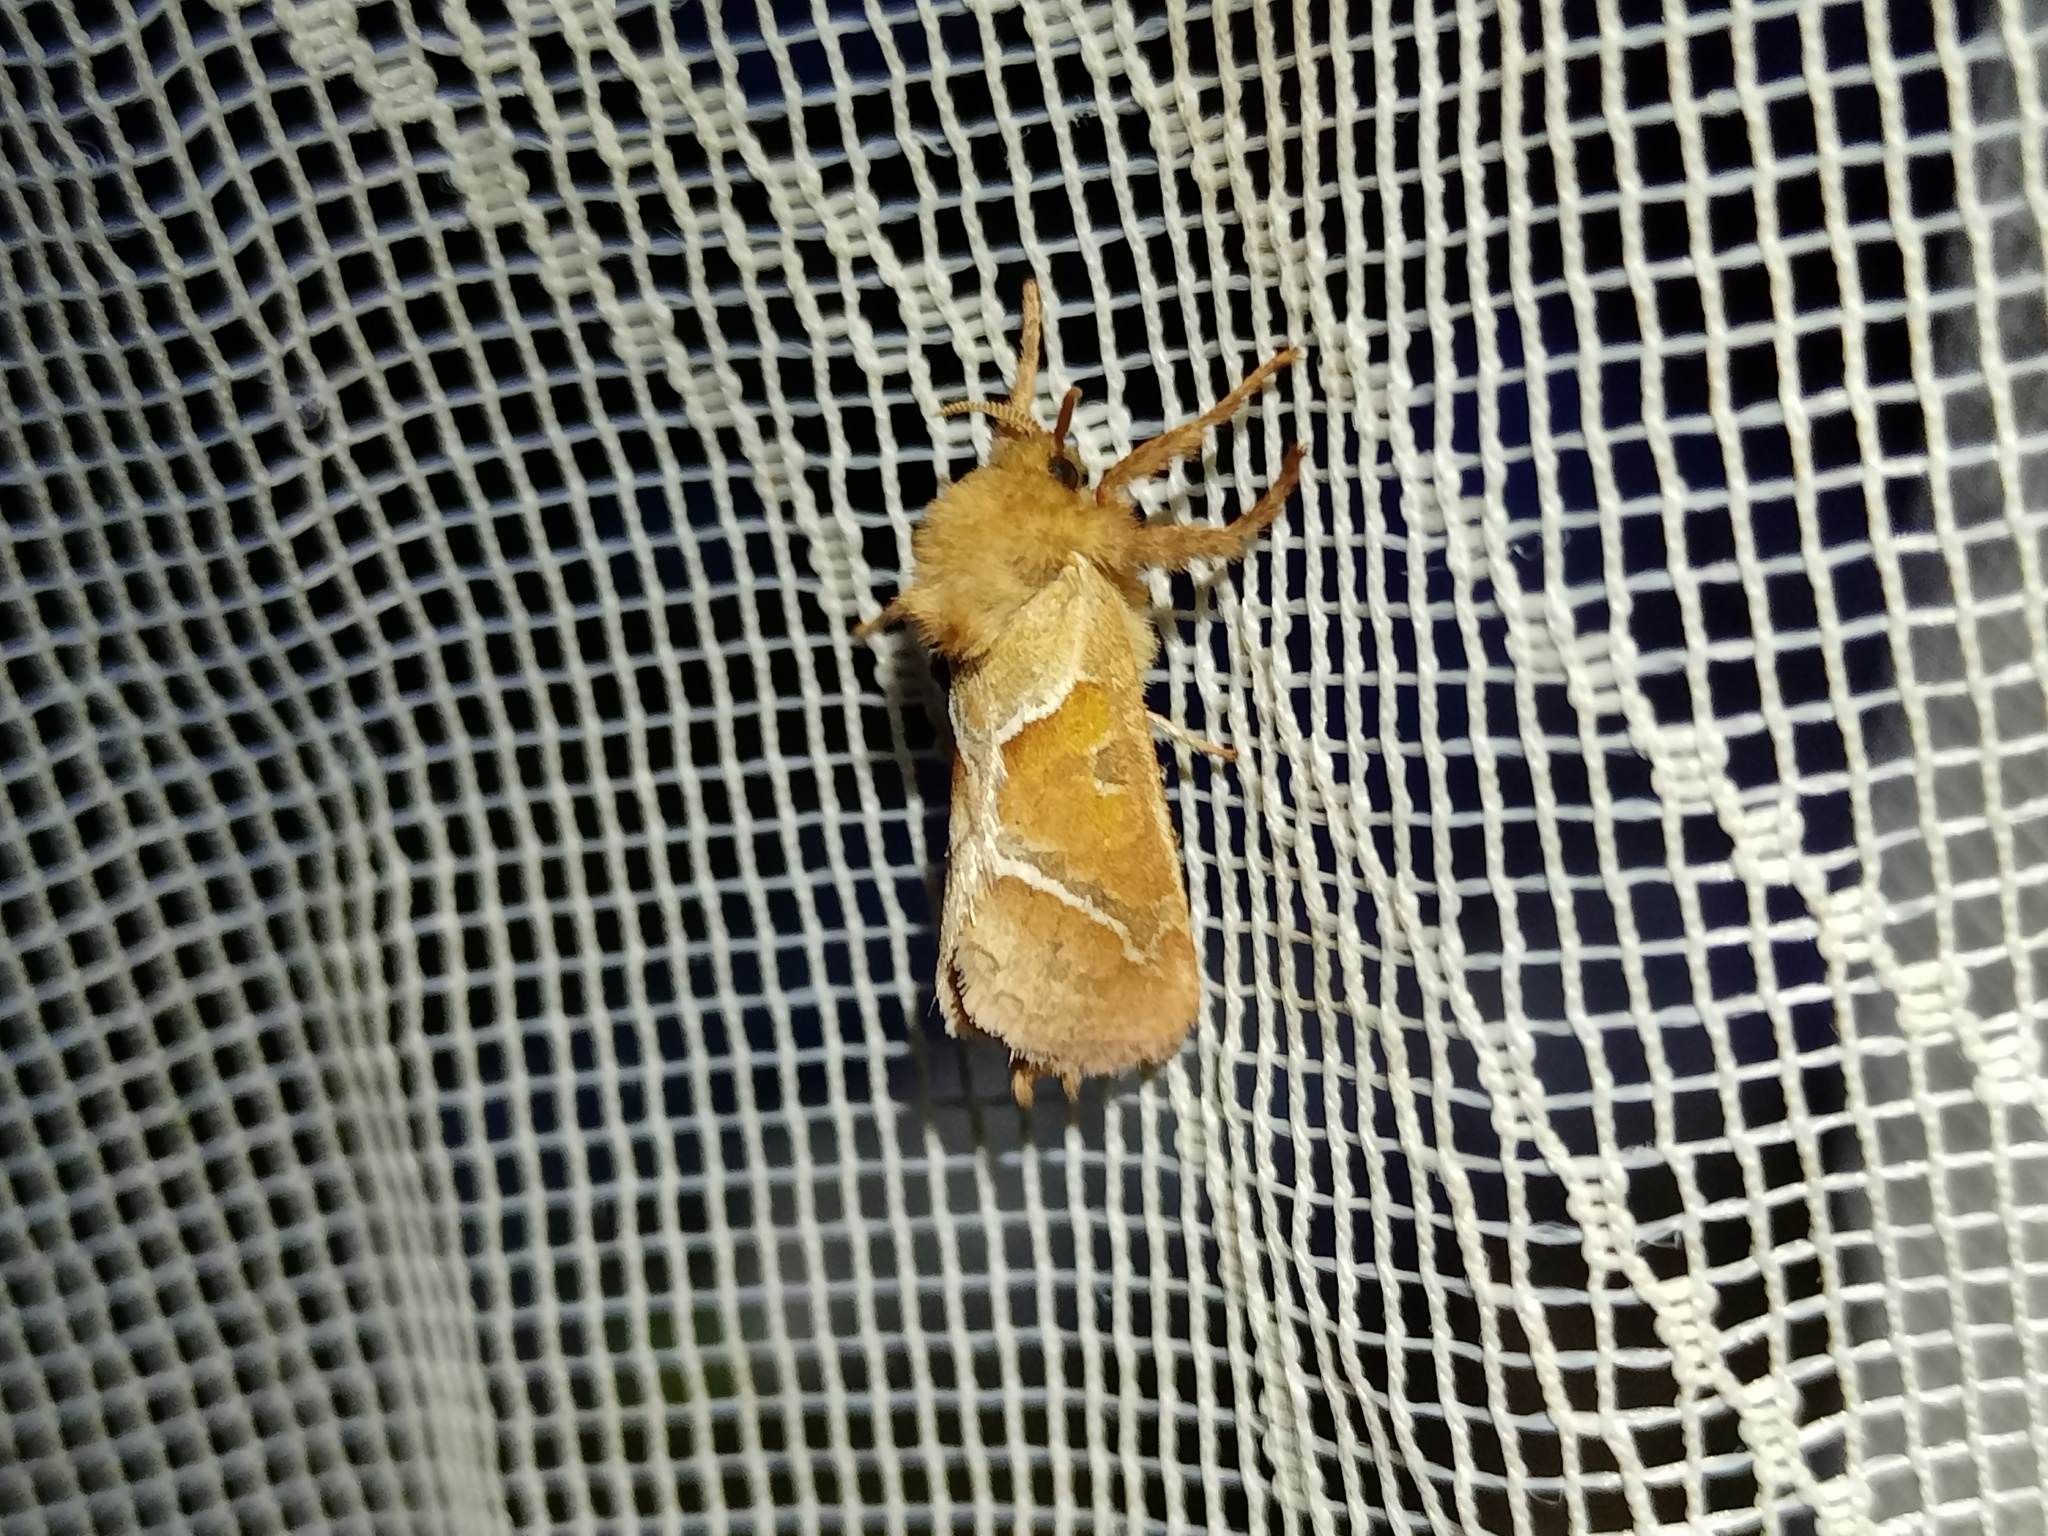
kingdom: Animalia
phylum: Arthropoda
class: Insecta
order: Lepidoptera
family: Hepialidae
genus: Triodia
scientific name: Triodia sylvina
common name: Orange swift
